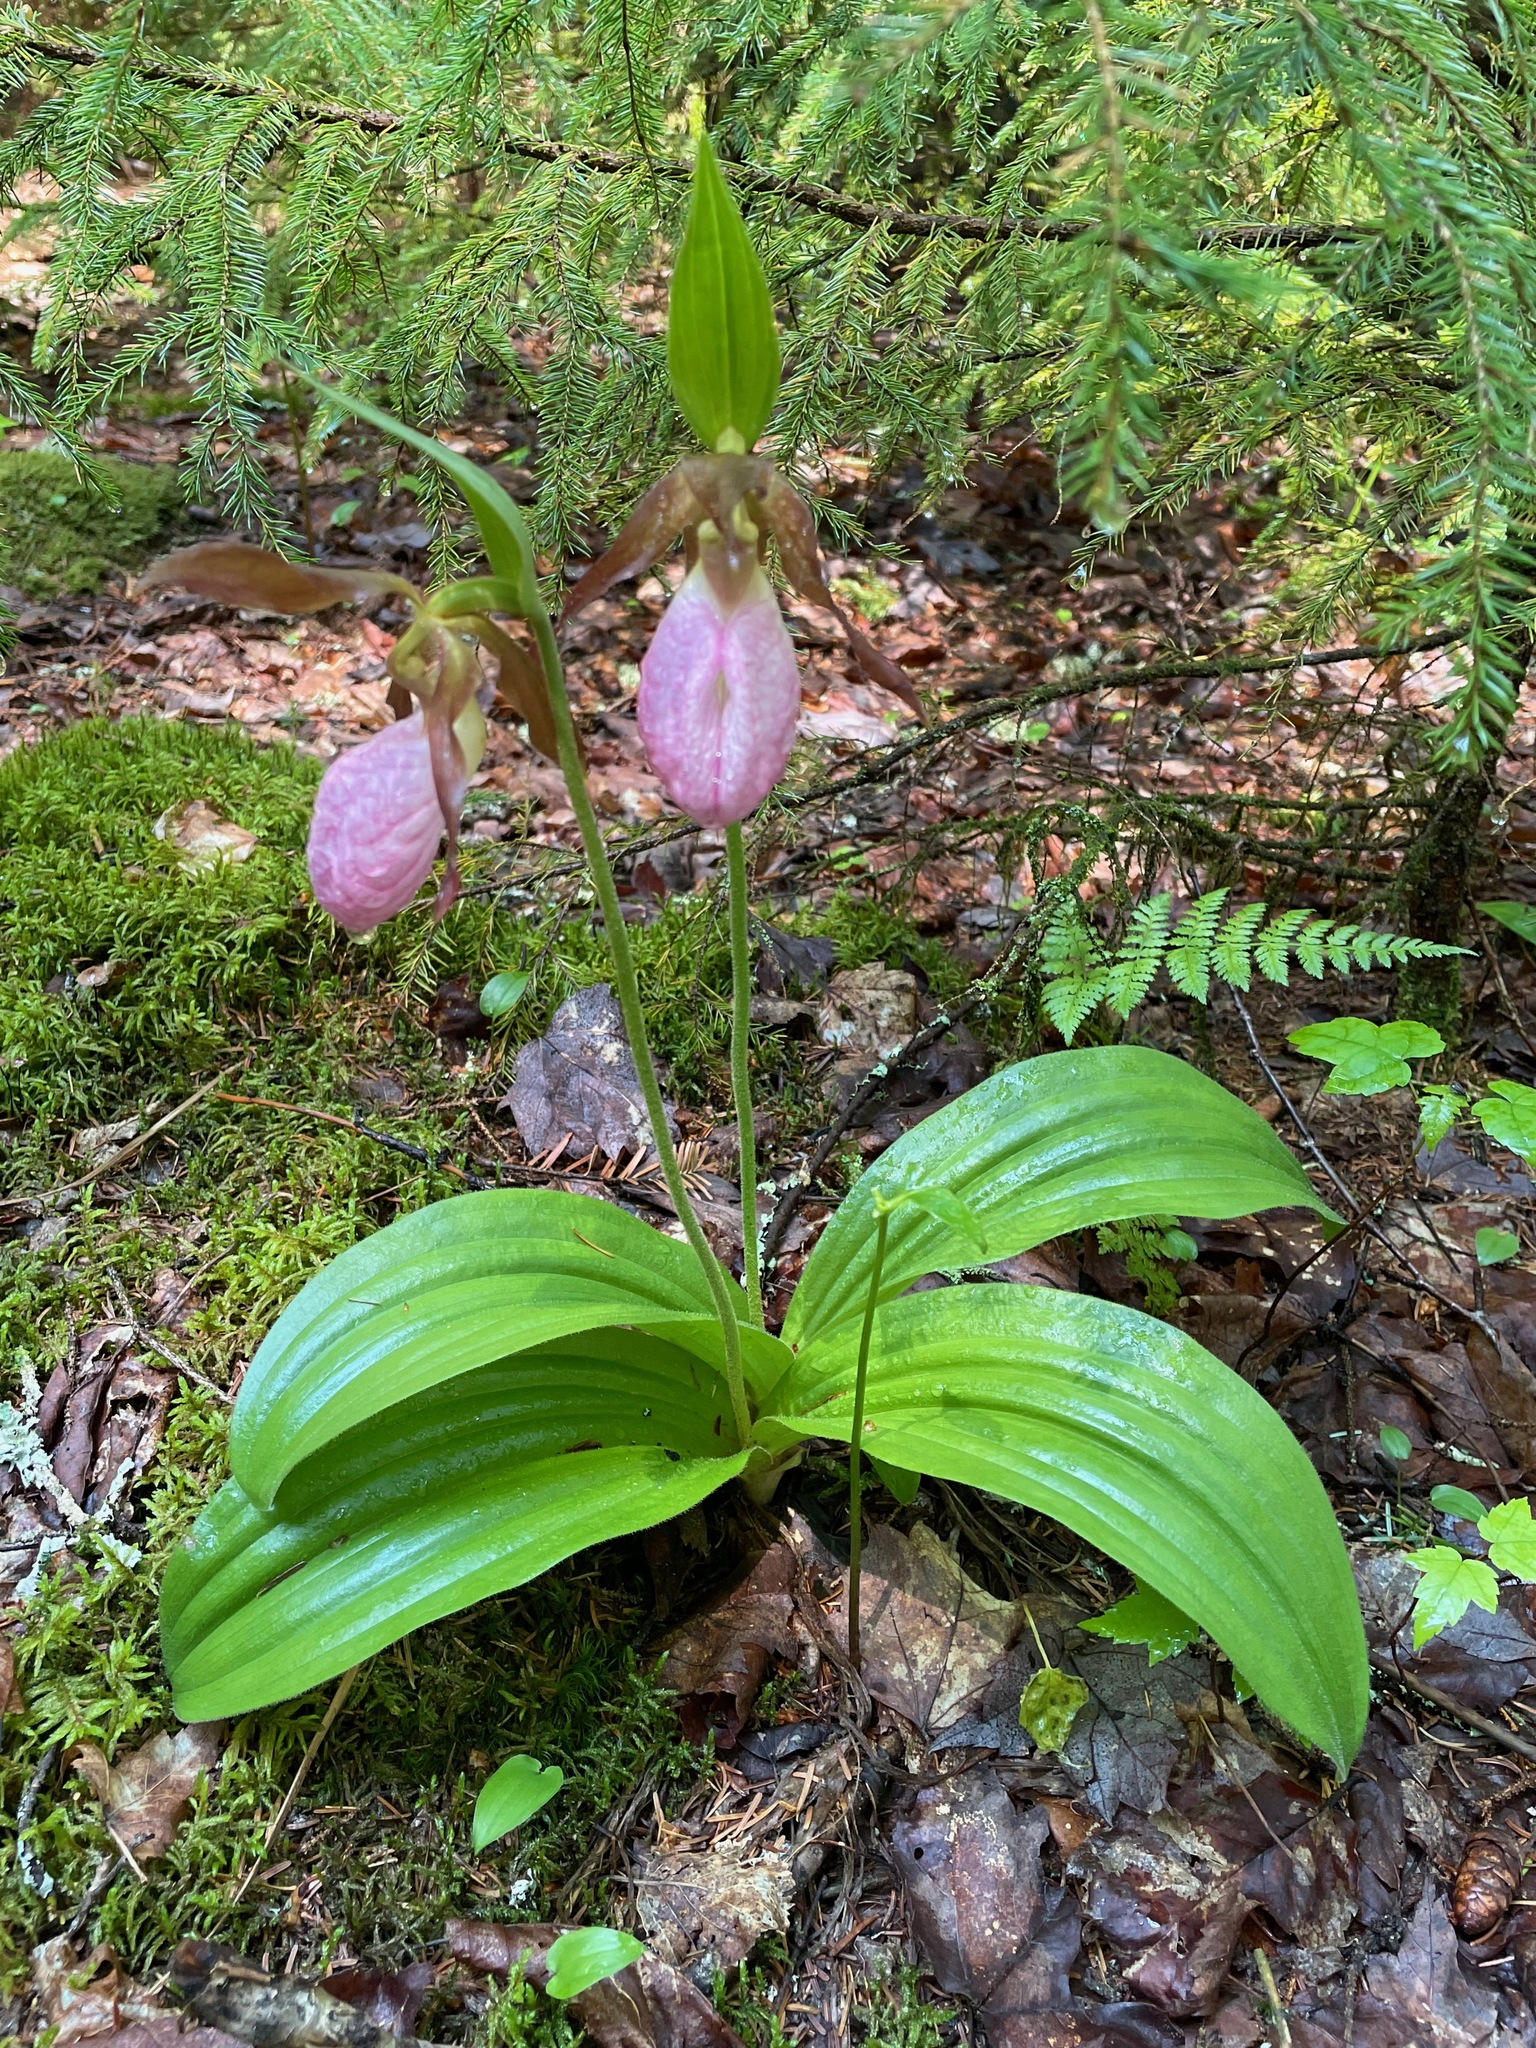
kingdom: Plantae
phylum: Tracheophyta
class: Liliopsida
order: Asparagales
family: Orchidaceae
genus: Cypripedium
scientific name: Cypripedium acaule
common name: Pink lady's-slipper
